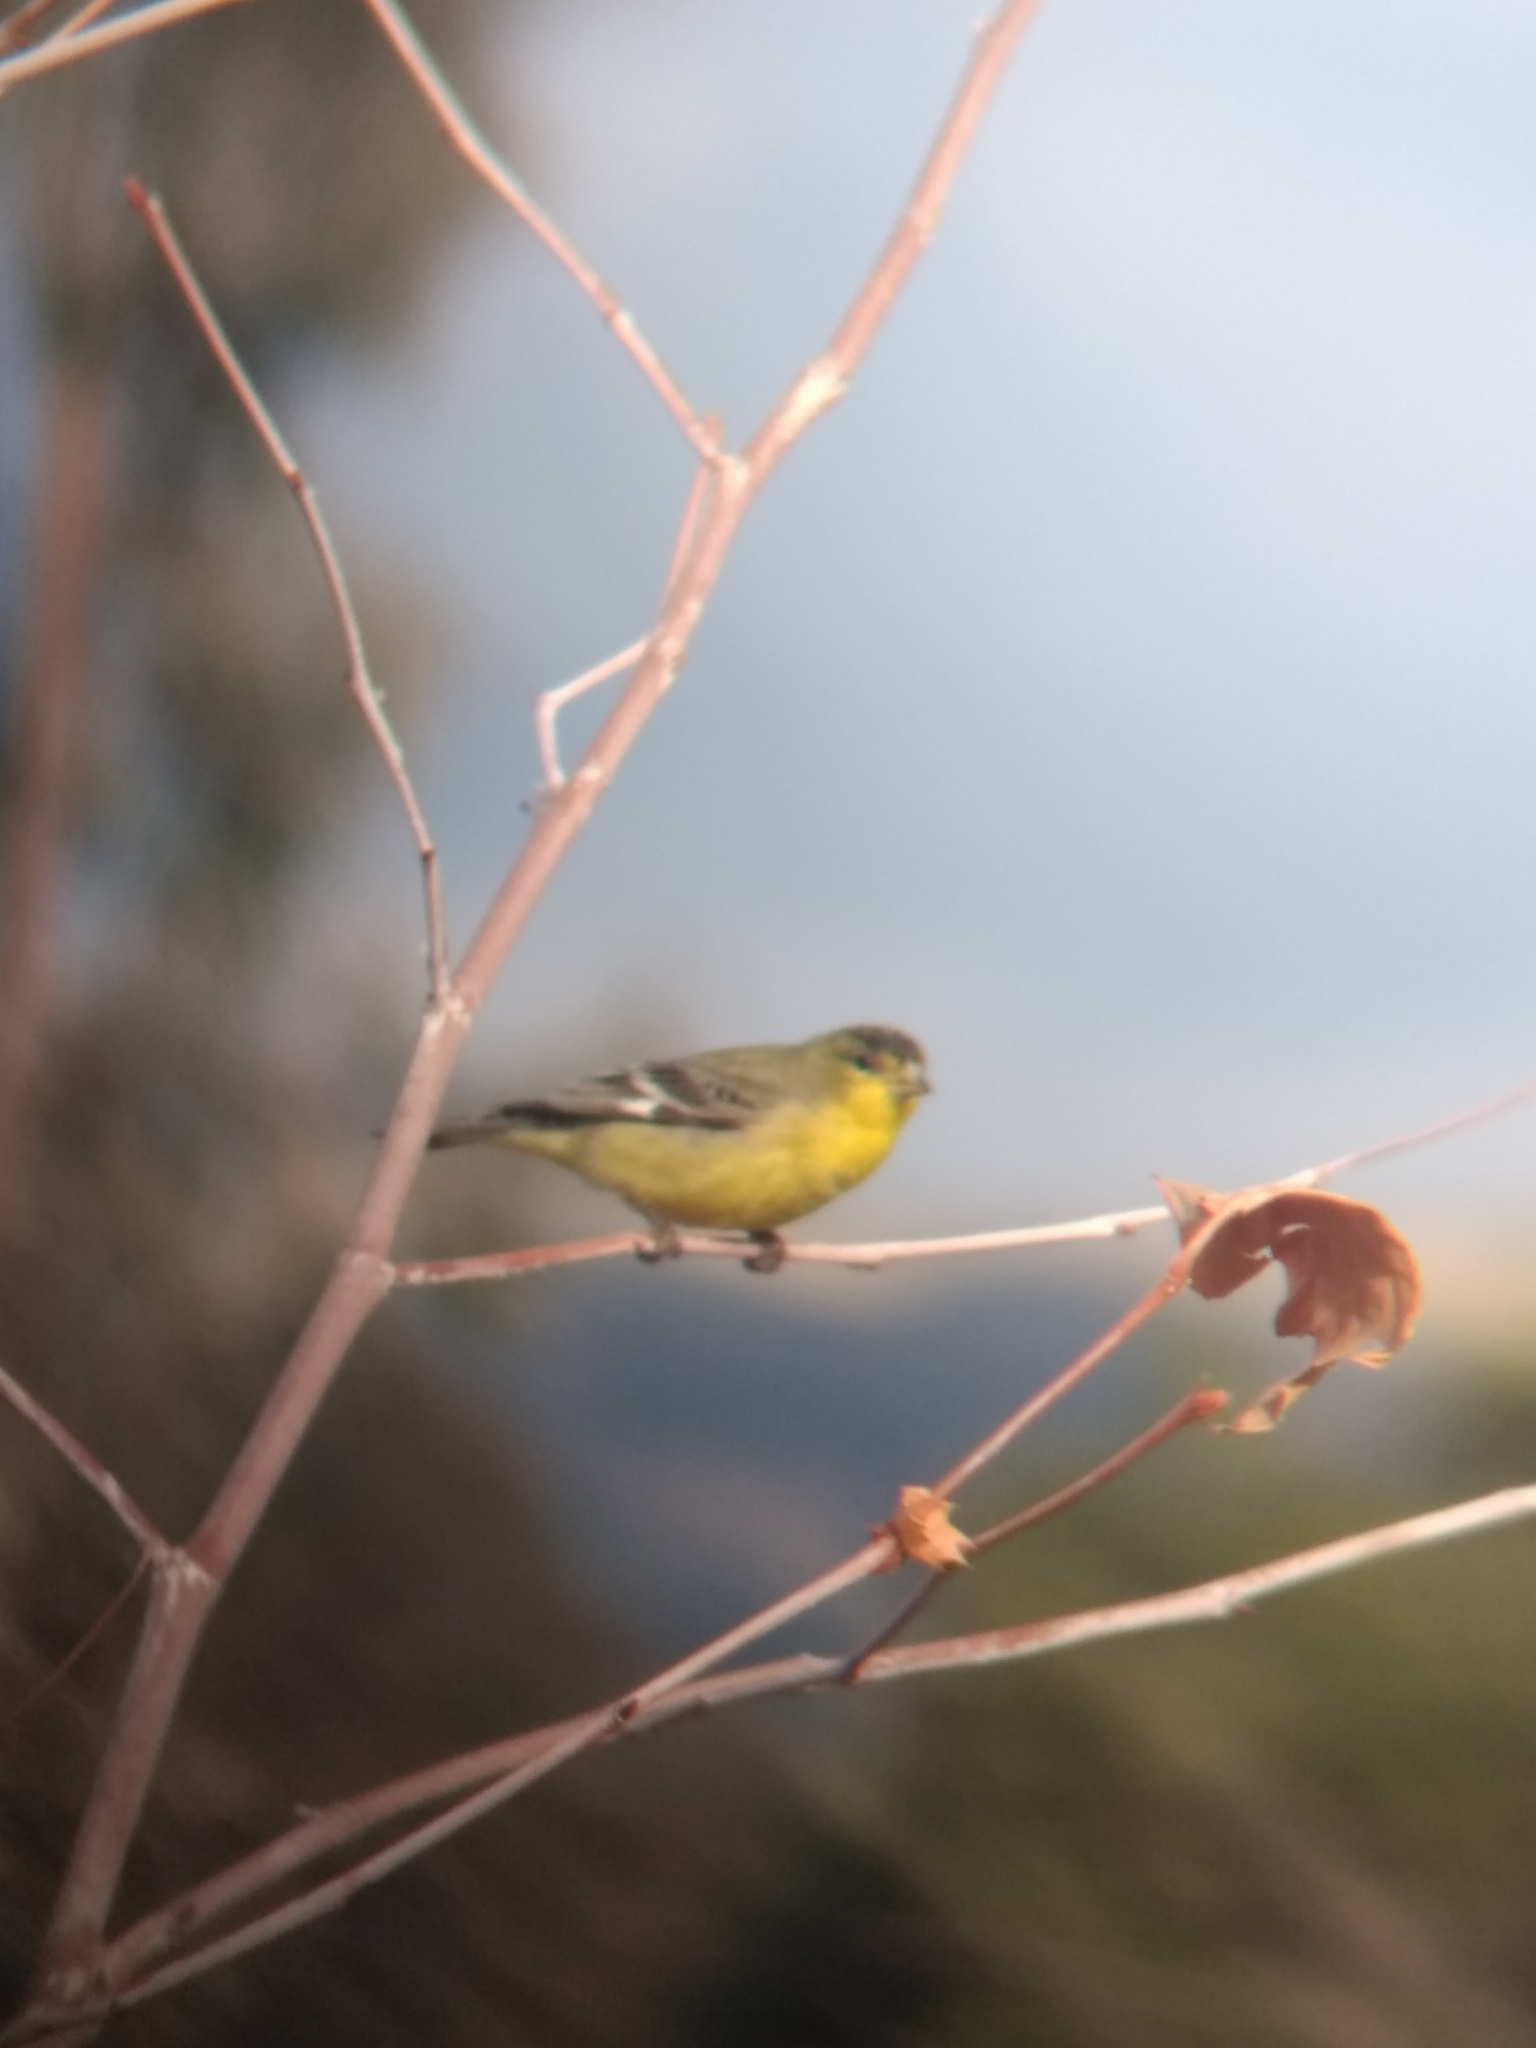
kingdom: Animalia
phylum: Chordata
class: Aves
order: Passeriformes
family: Fringillidae
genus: Spinus
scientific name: Spinus psaltria
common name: Lesser goldfinch
